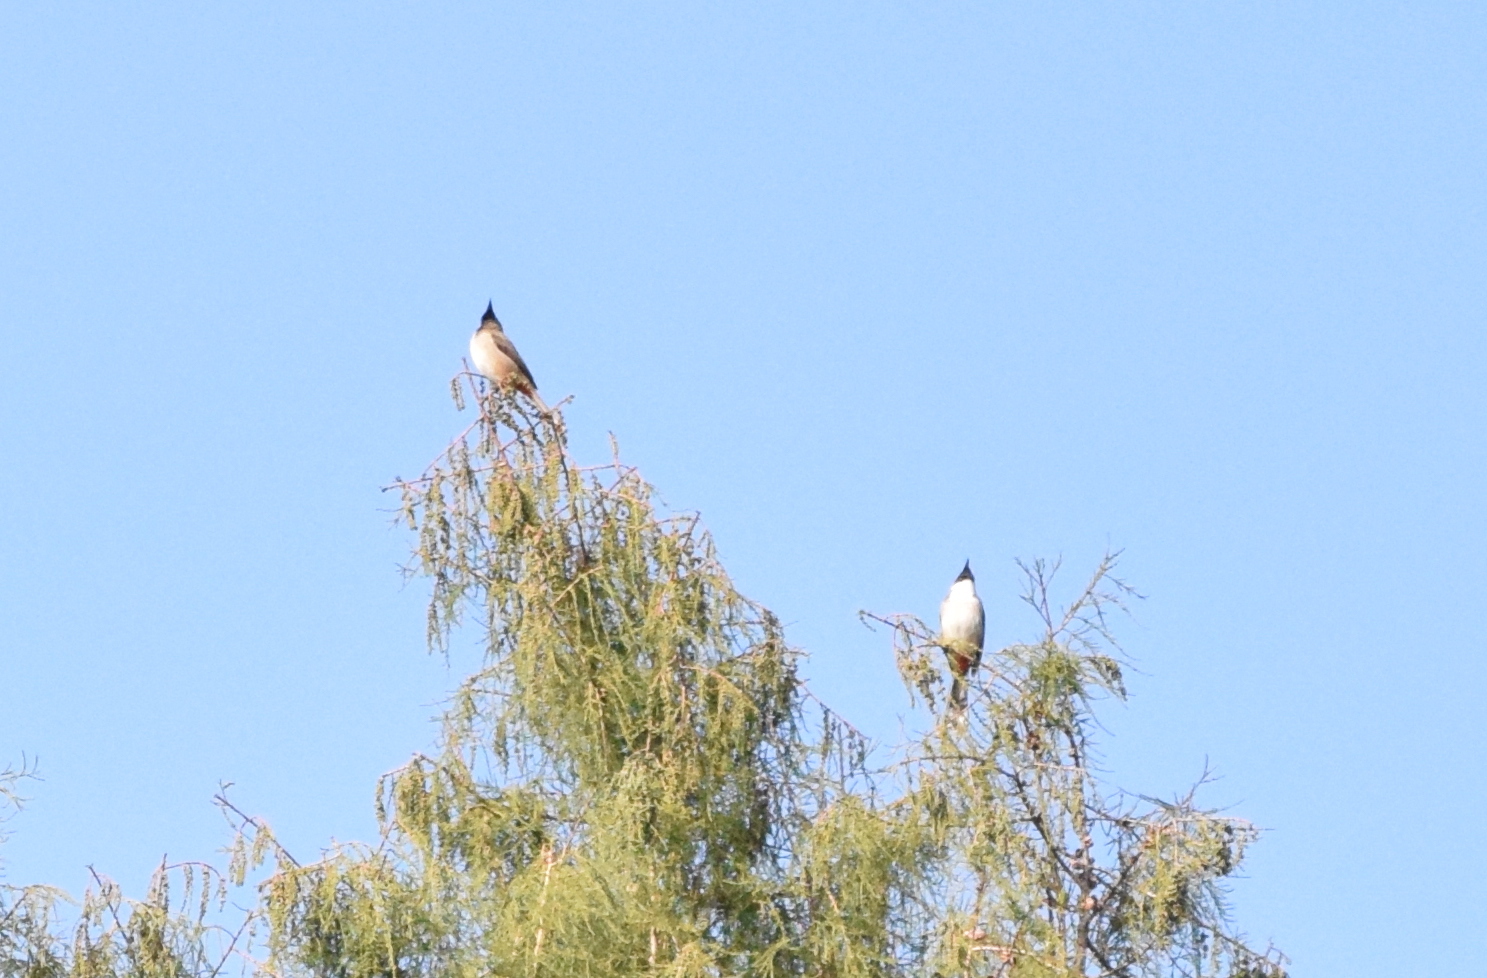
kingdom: Animalia
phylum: Chordata
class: Aves
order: Passeriformes
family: Pycnonotidae
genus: Pycnonotus
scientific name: Pycnonotus jocosus
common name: Red-whiskered bulbul
